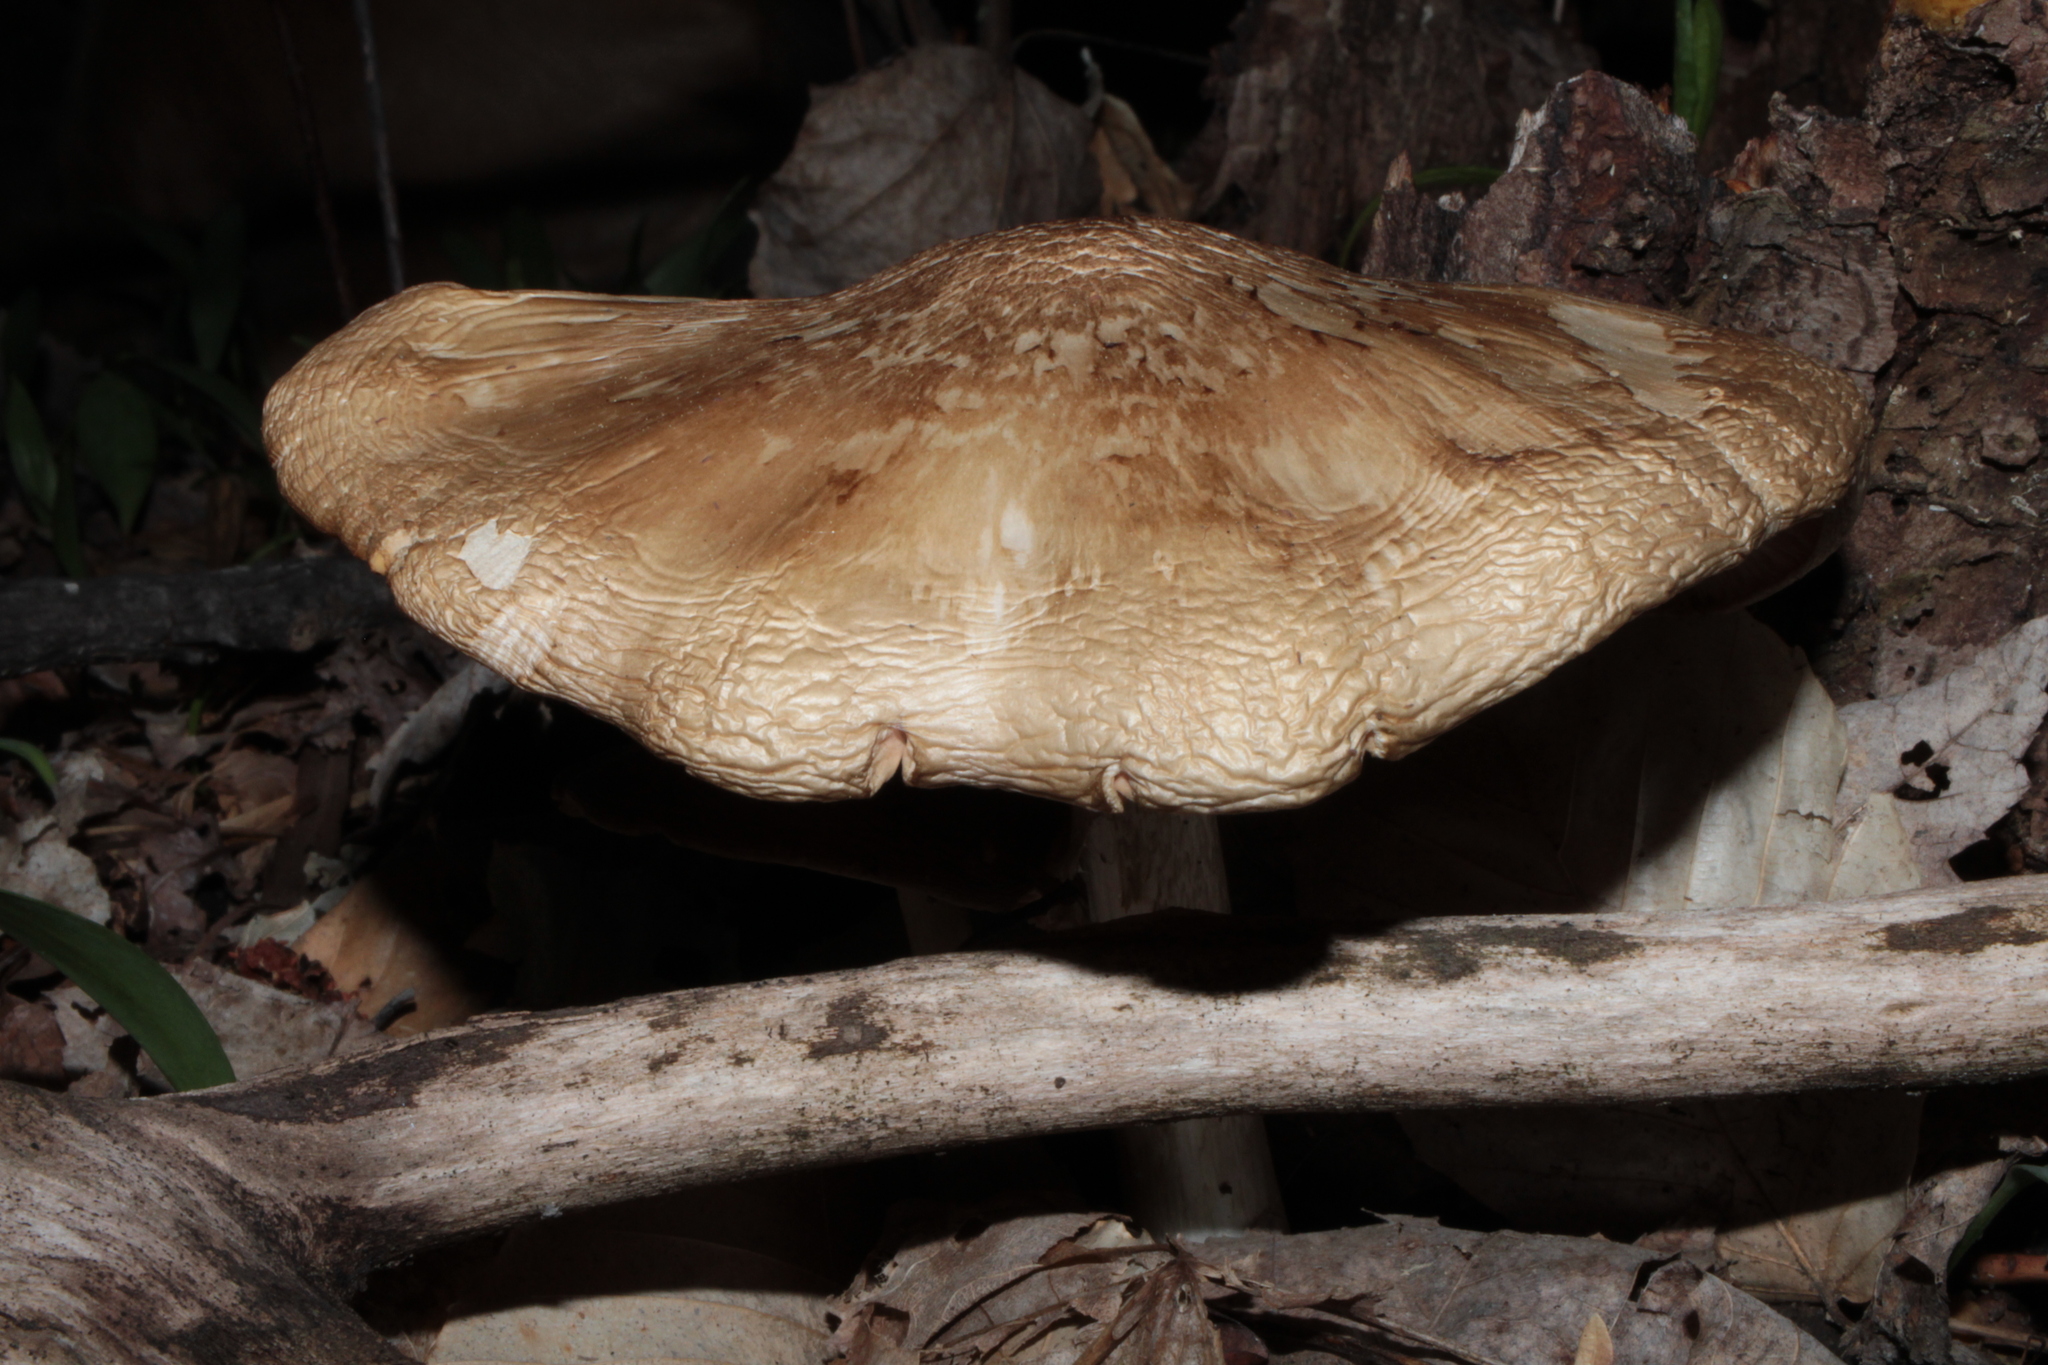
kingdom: Fungi
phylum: Basidiomycota
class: Agaricomycetes
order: Agaricales
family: Pluteaceae
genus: Pluteus
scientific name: Pluteus cervinus
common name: Deer shield
